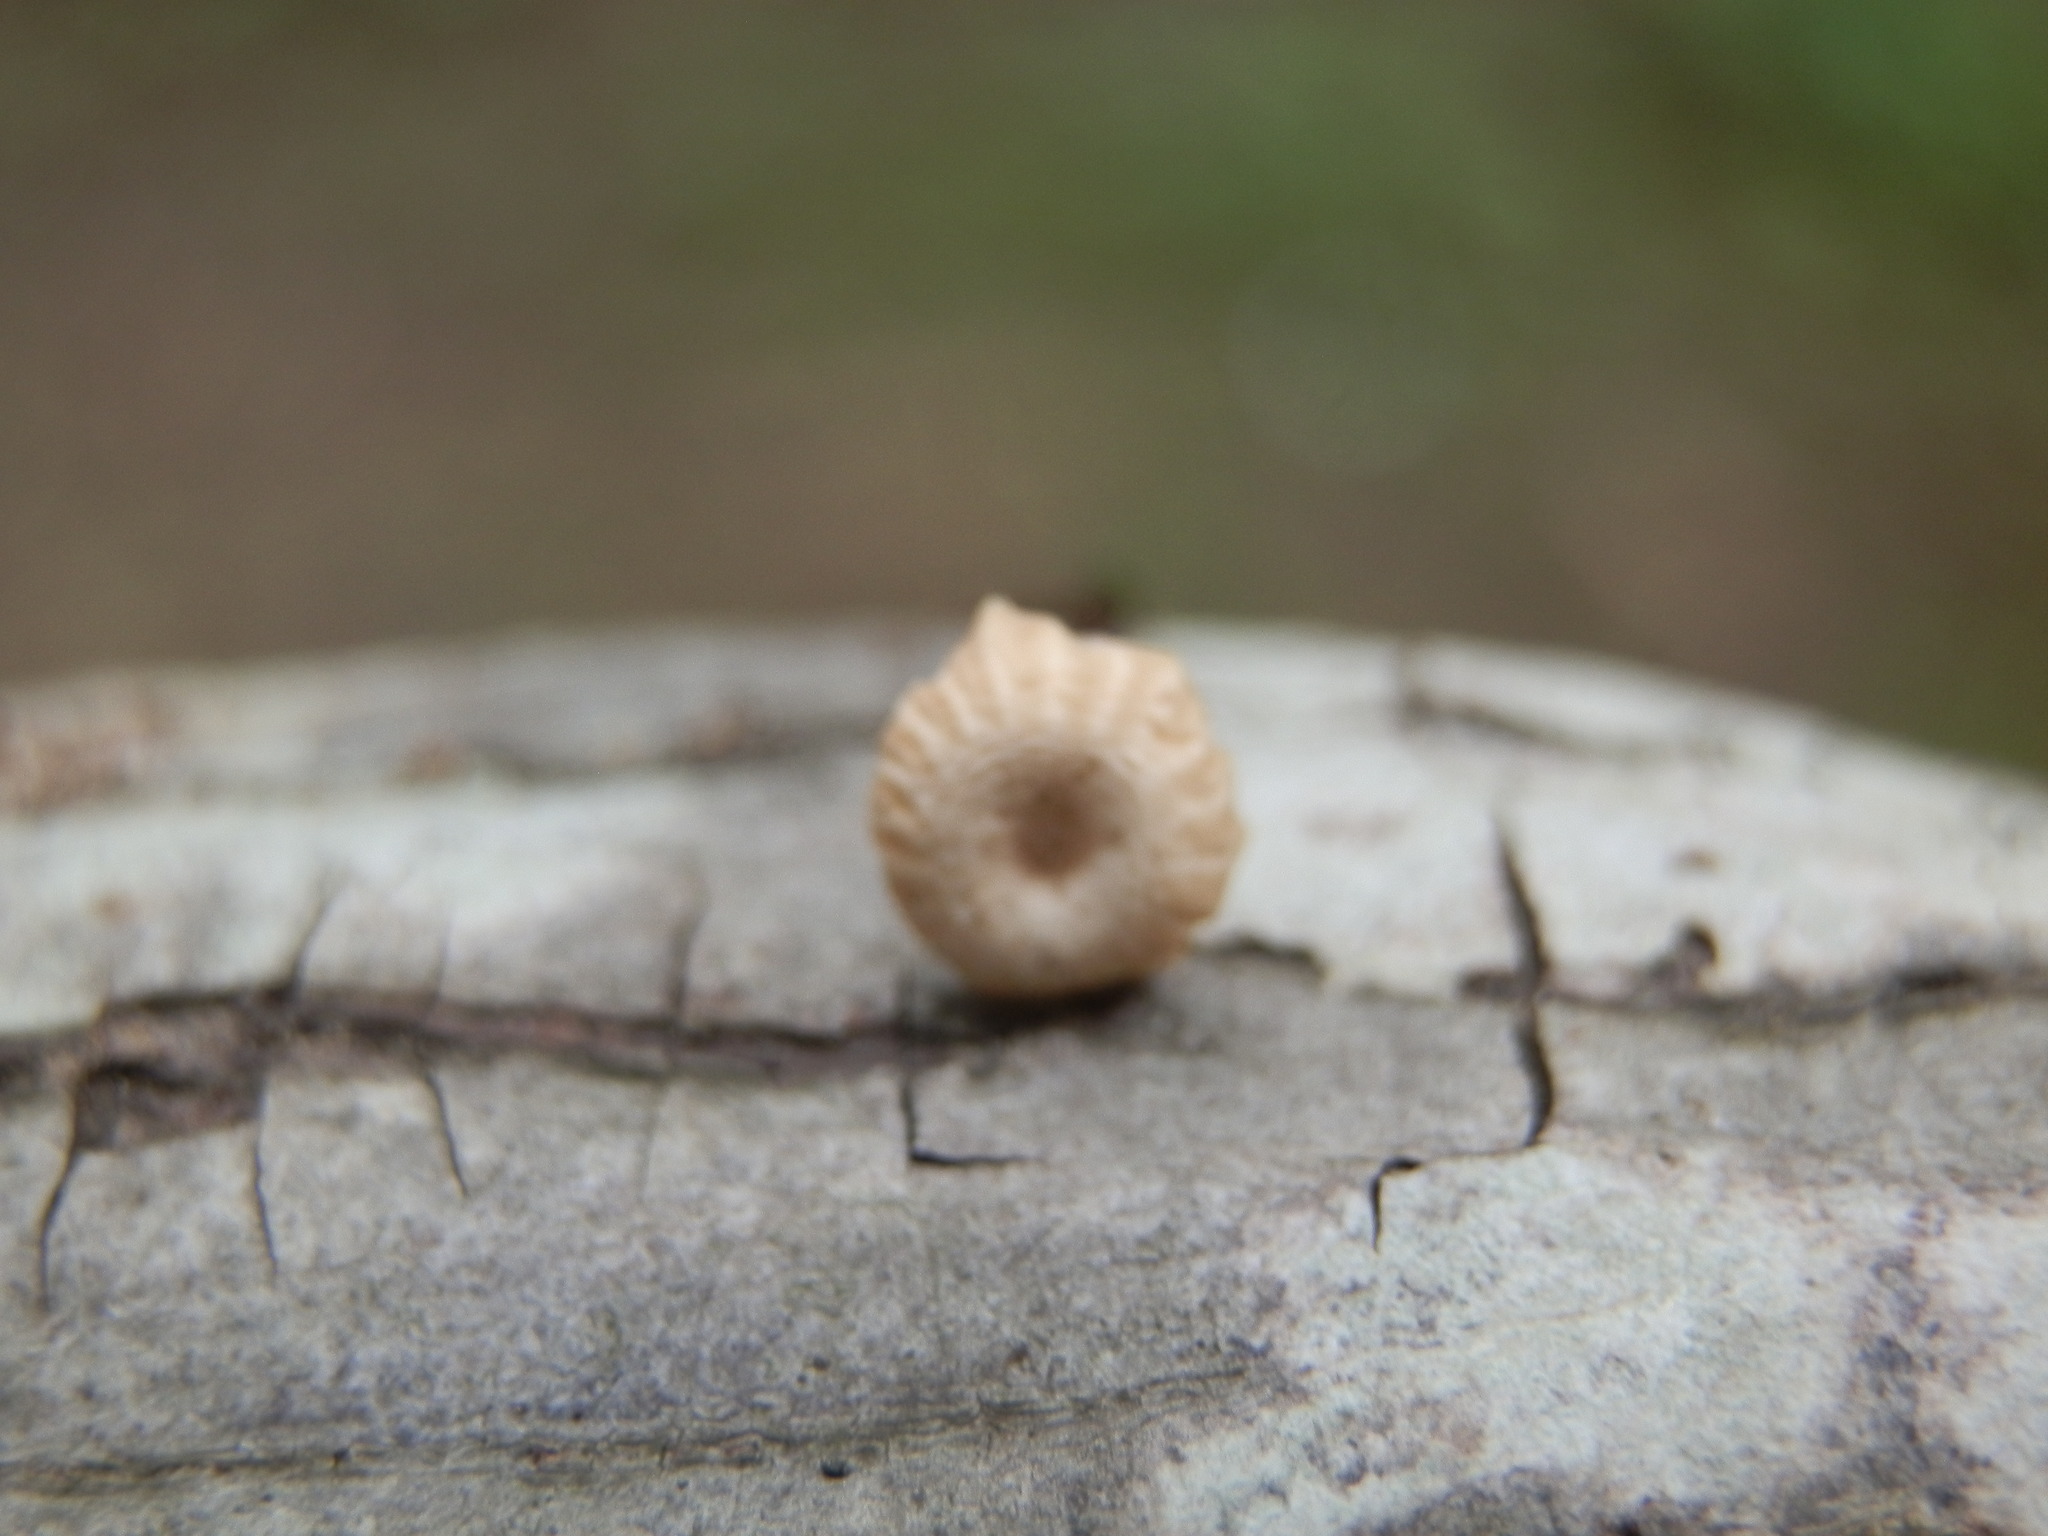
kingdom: Fungi
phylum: Basidiomycota
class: Agaricomycetes
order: Agaricales
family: Marasmiaceae
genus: Marasmius
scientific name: Marasmius rotula
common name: Collared parachute
